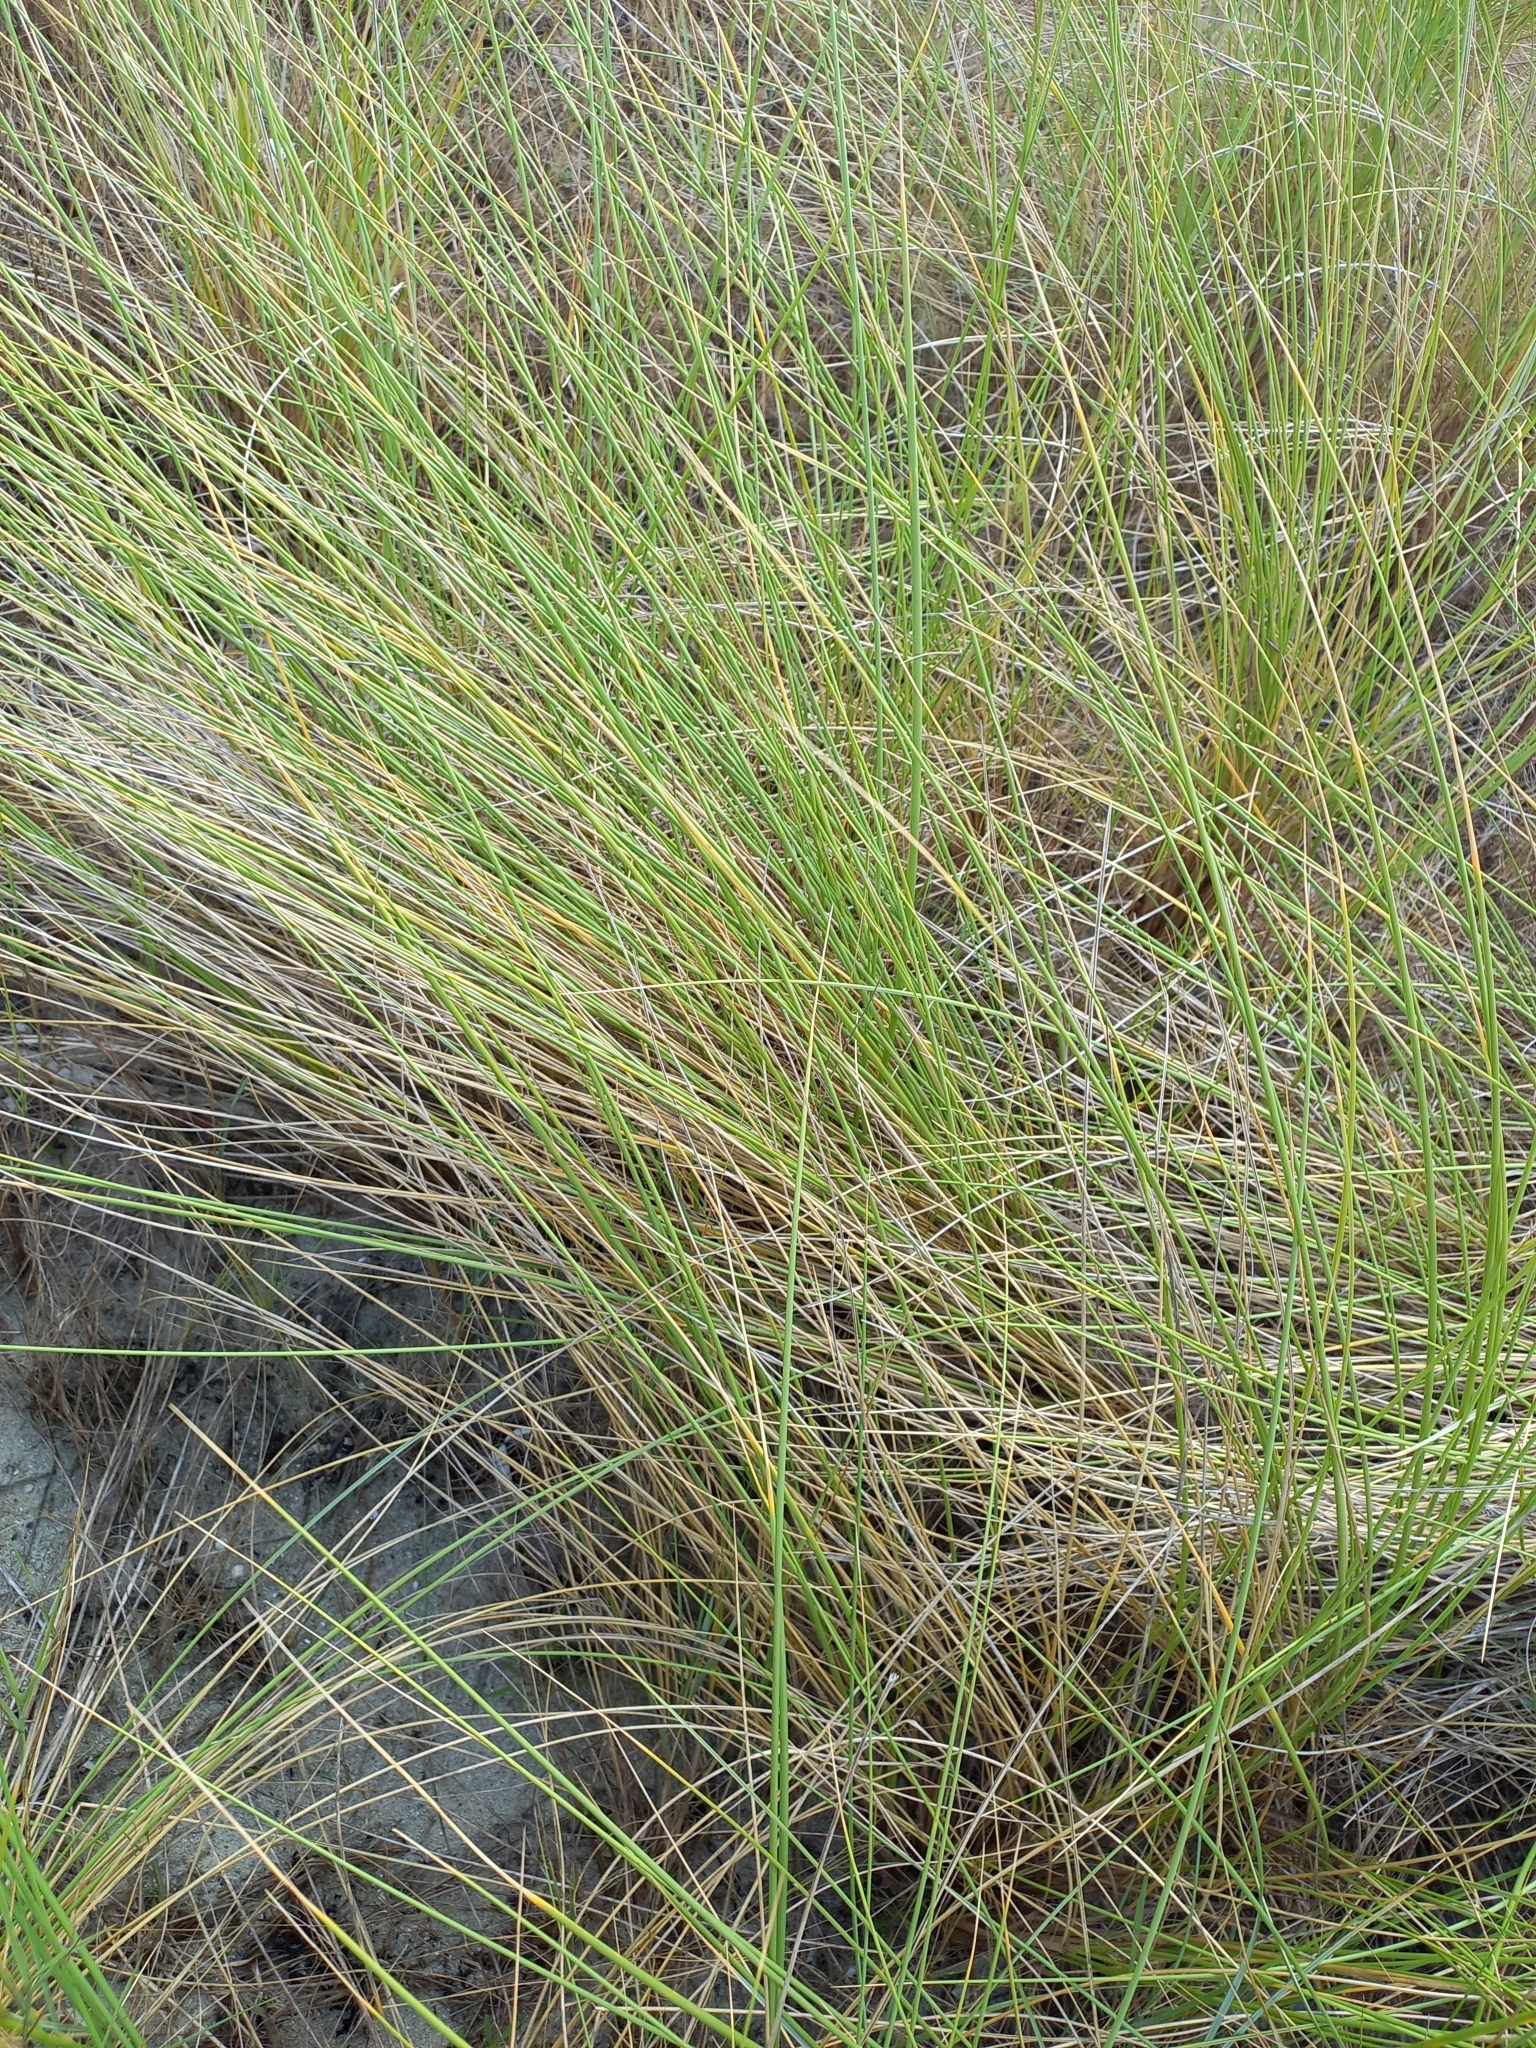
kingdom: Plantae
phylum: Tracheophyta
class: Liliopsida
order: Poales
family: Poaceae
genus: Calamagrostis
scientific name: Calamagrostis arenaria
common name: European beachgrass
